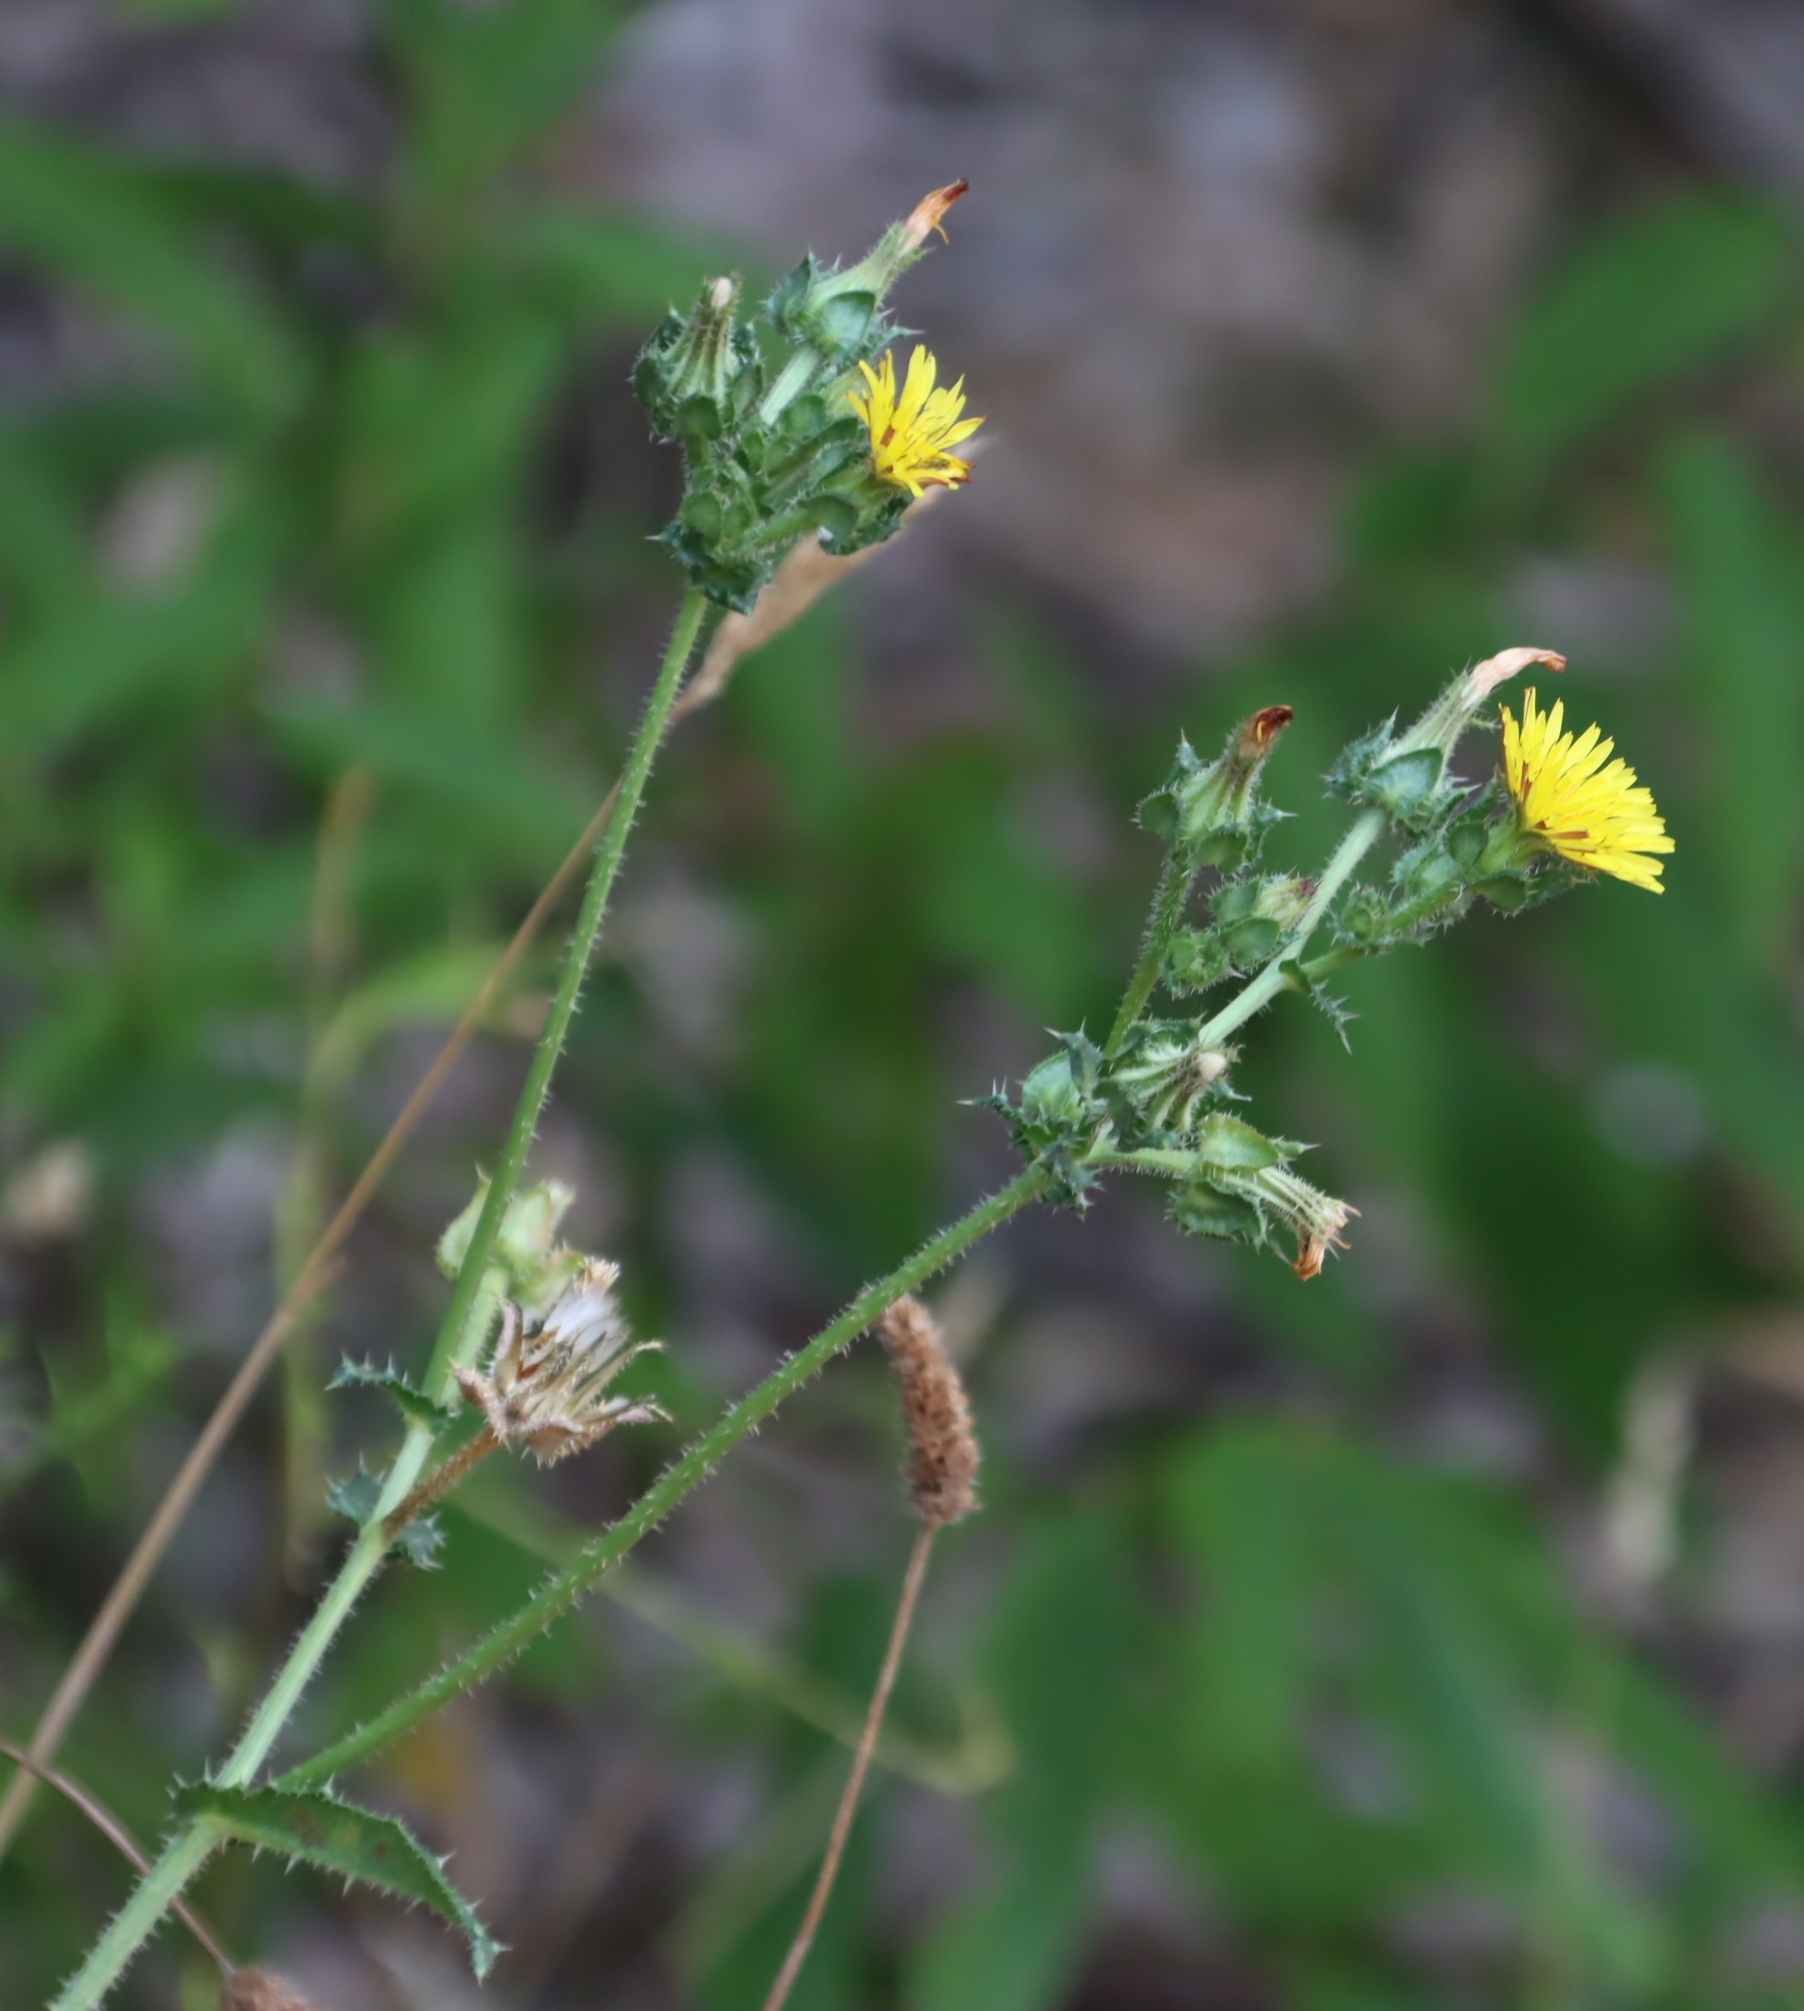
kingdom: Plantae
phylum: Tracheophyta
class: Magnoliopsida
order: Asterales
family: Asteraceae
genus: Helminthotheca
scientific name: Helminthotheca echioides
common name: Ox-tongue
